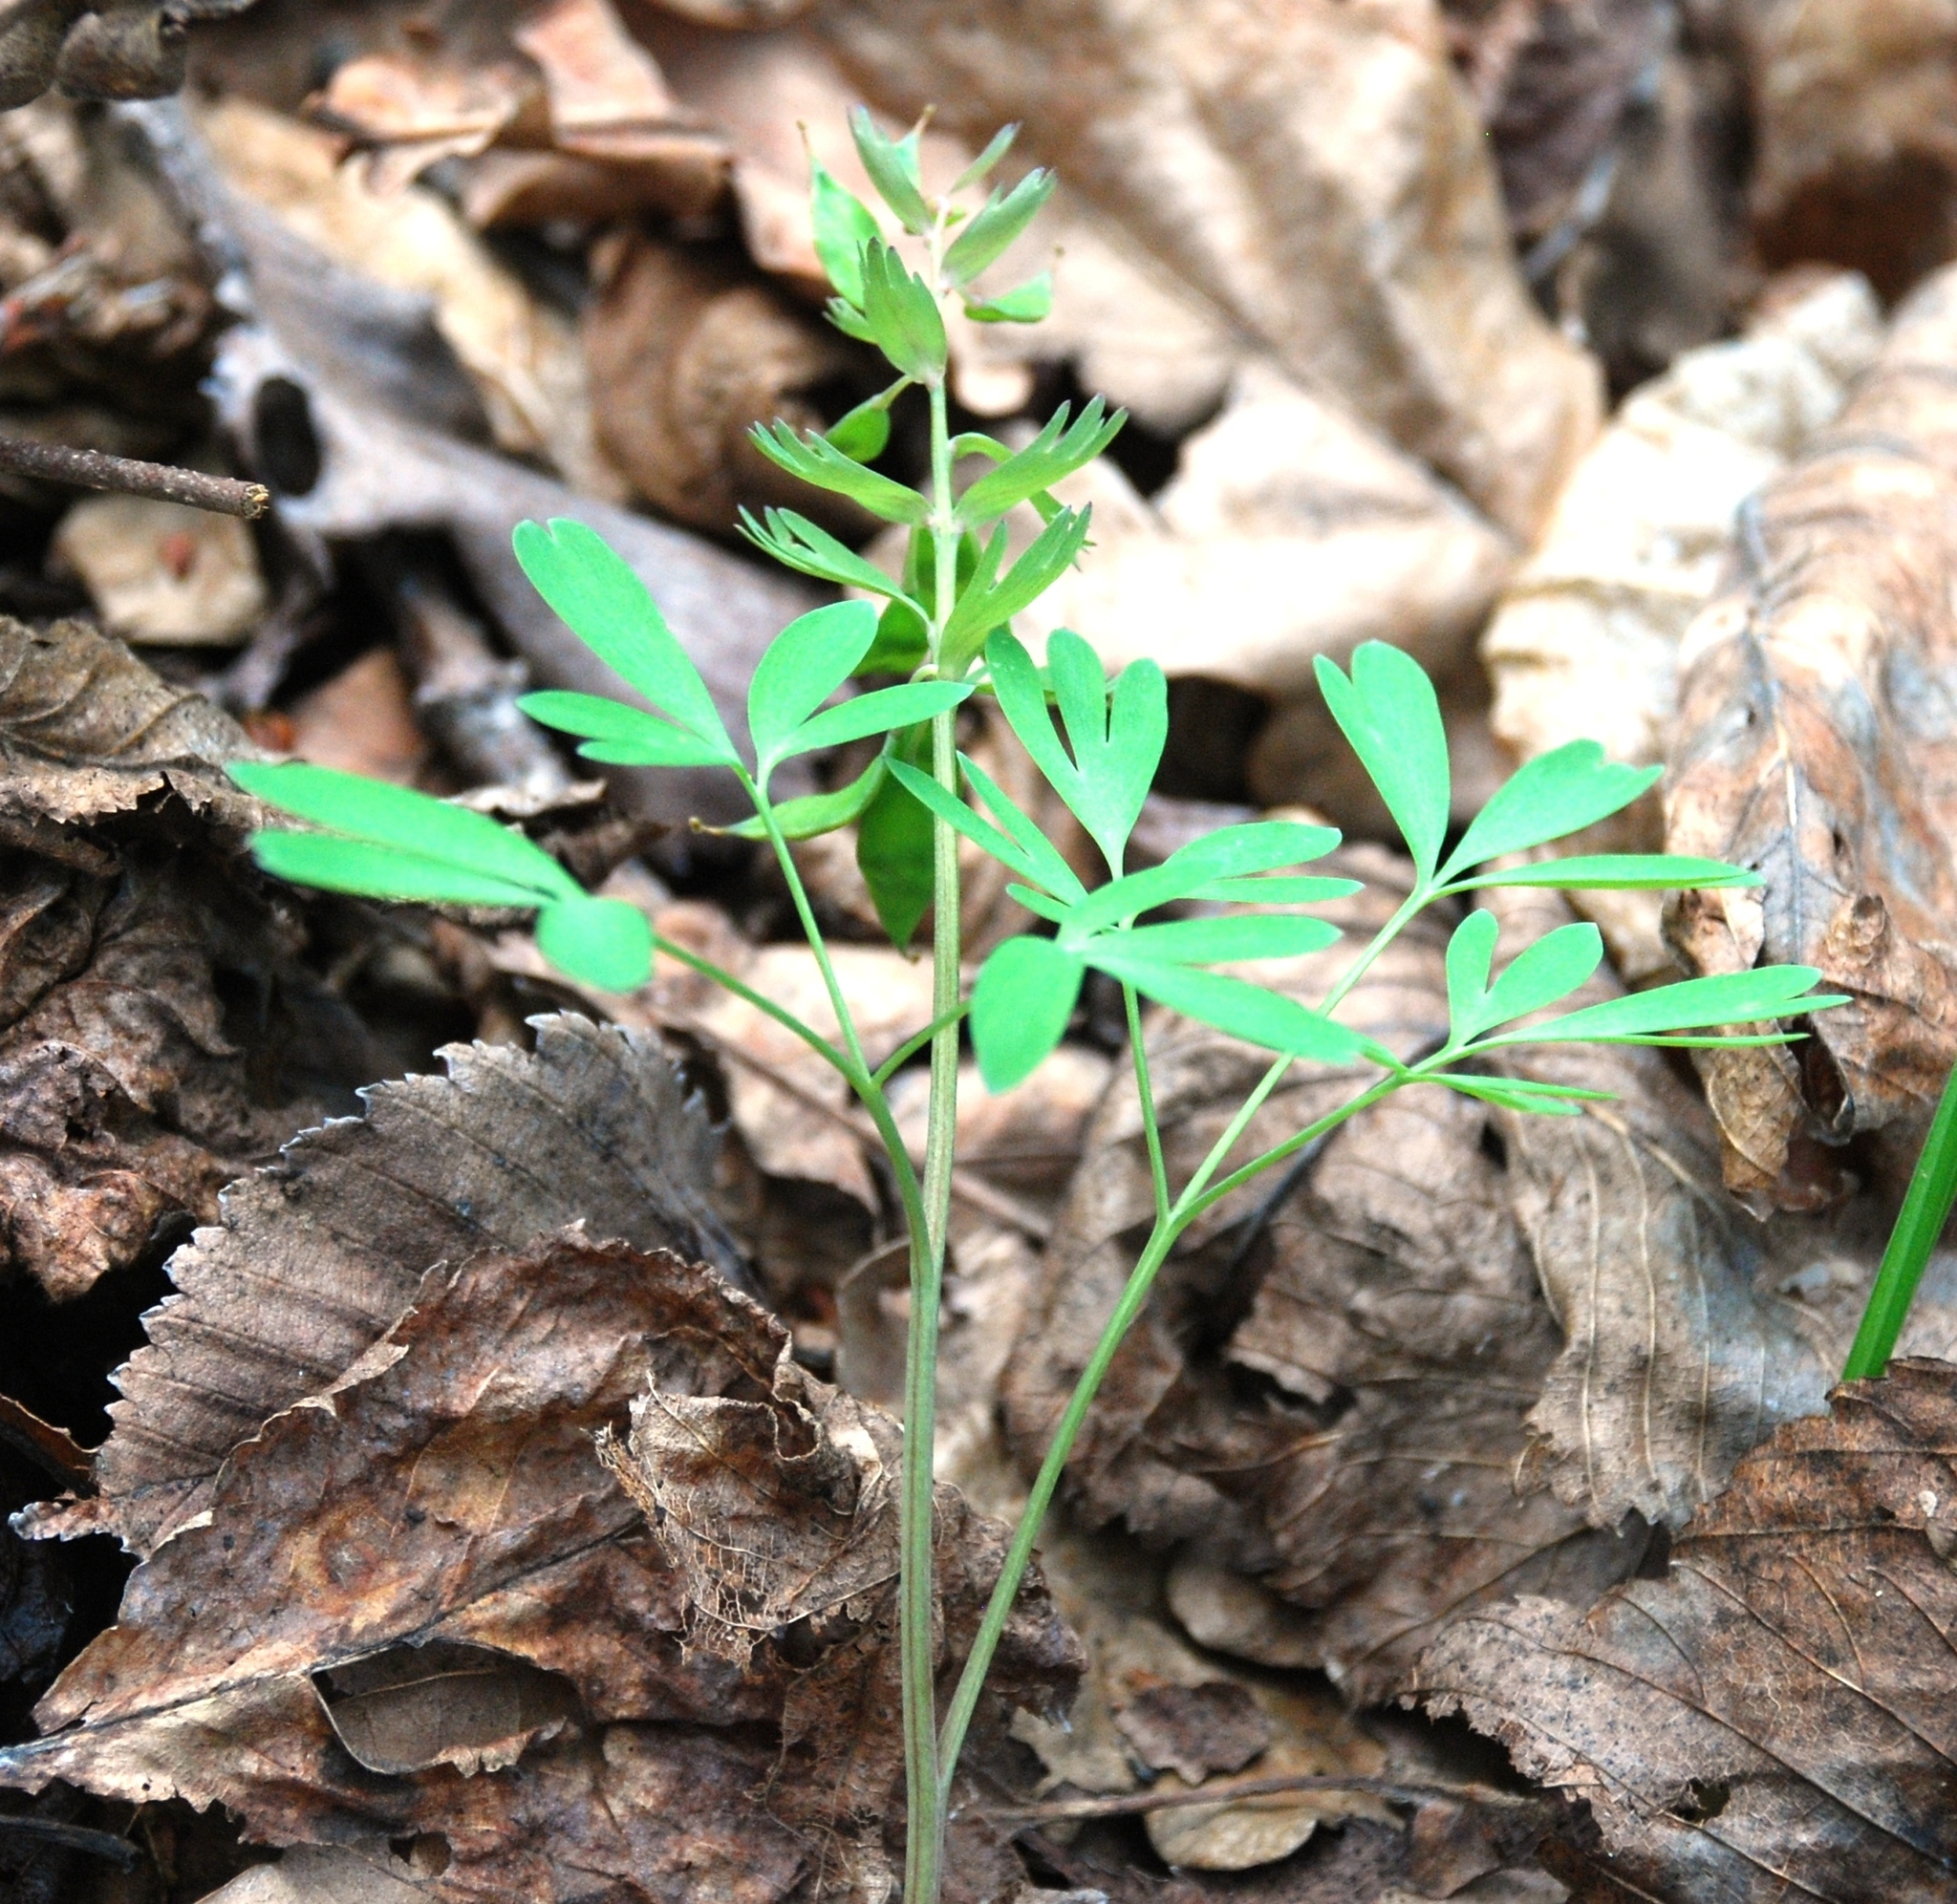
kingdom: Plantae
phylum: Tracheophyta
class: Magnoliopsida
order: Ranunculales
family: Papaveraceae
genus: Corydalis
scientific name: Corydalis solida
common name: Bird-in-a-bush
